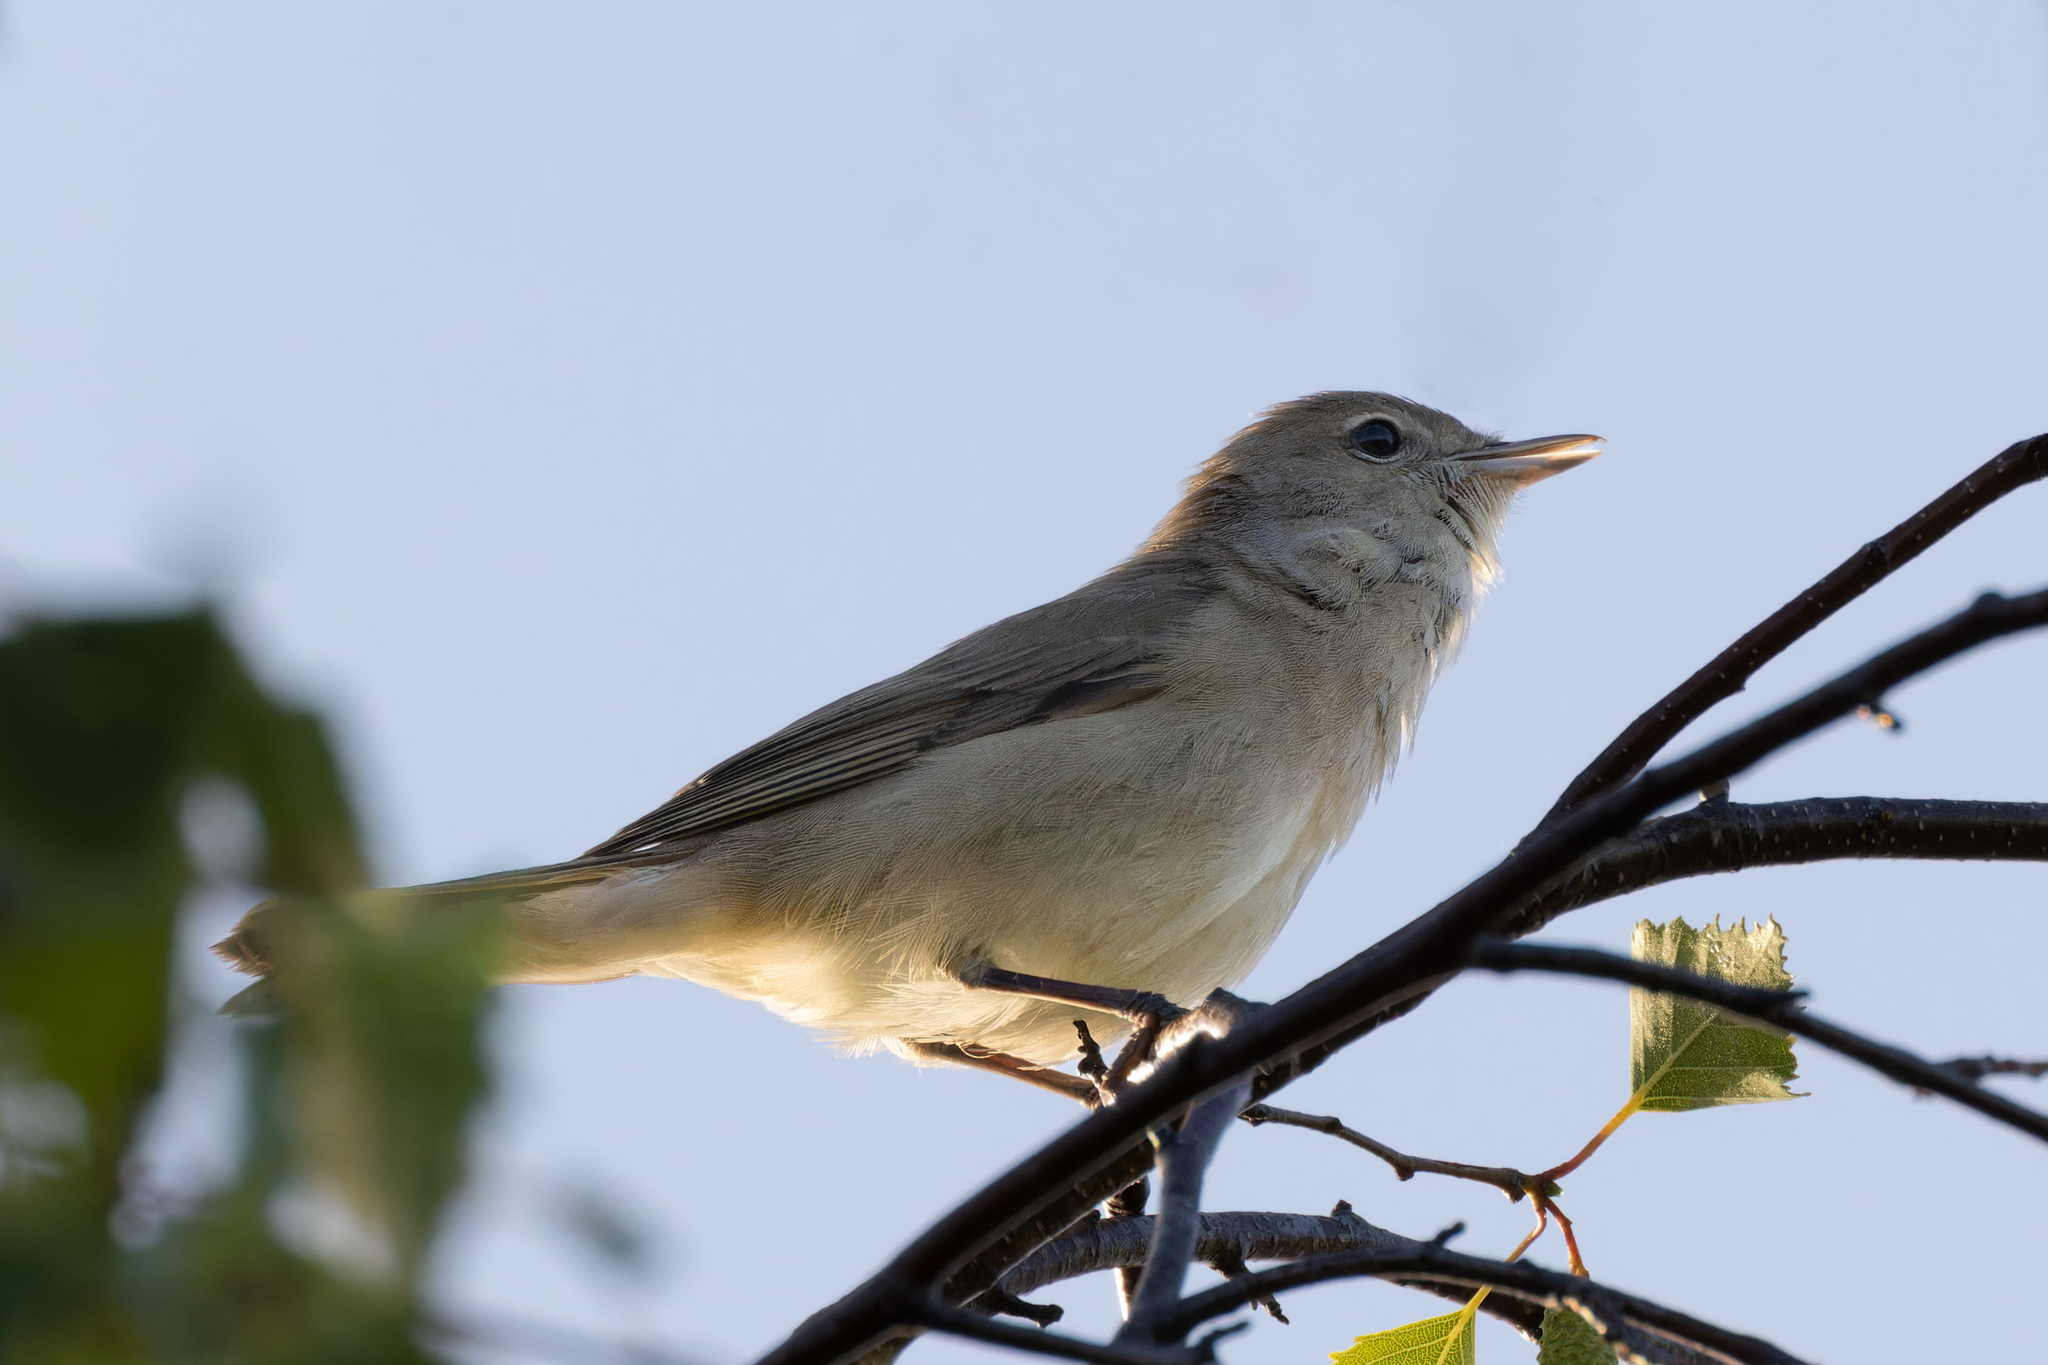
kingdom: Animalia
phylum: Chordata
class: Aves
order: Passeriformes
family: Sylviidae
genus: Sylvia
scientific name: Sylvia borin
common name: Garden warbler
